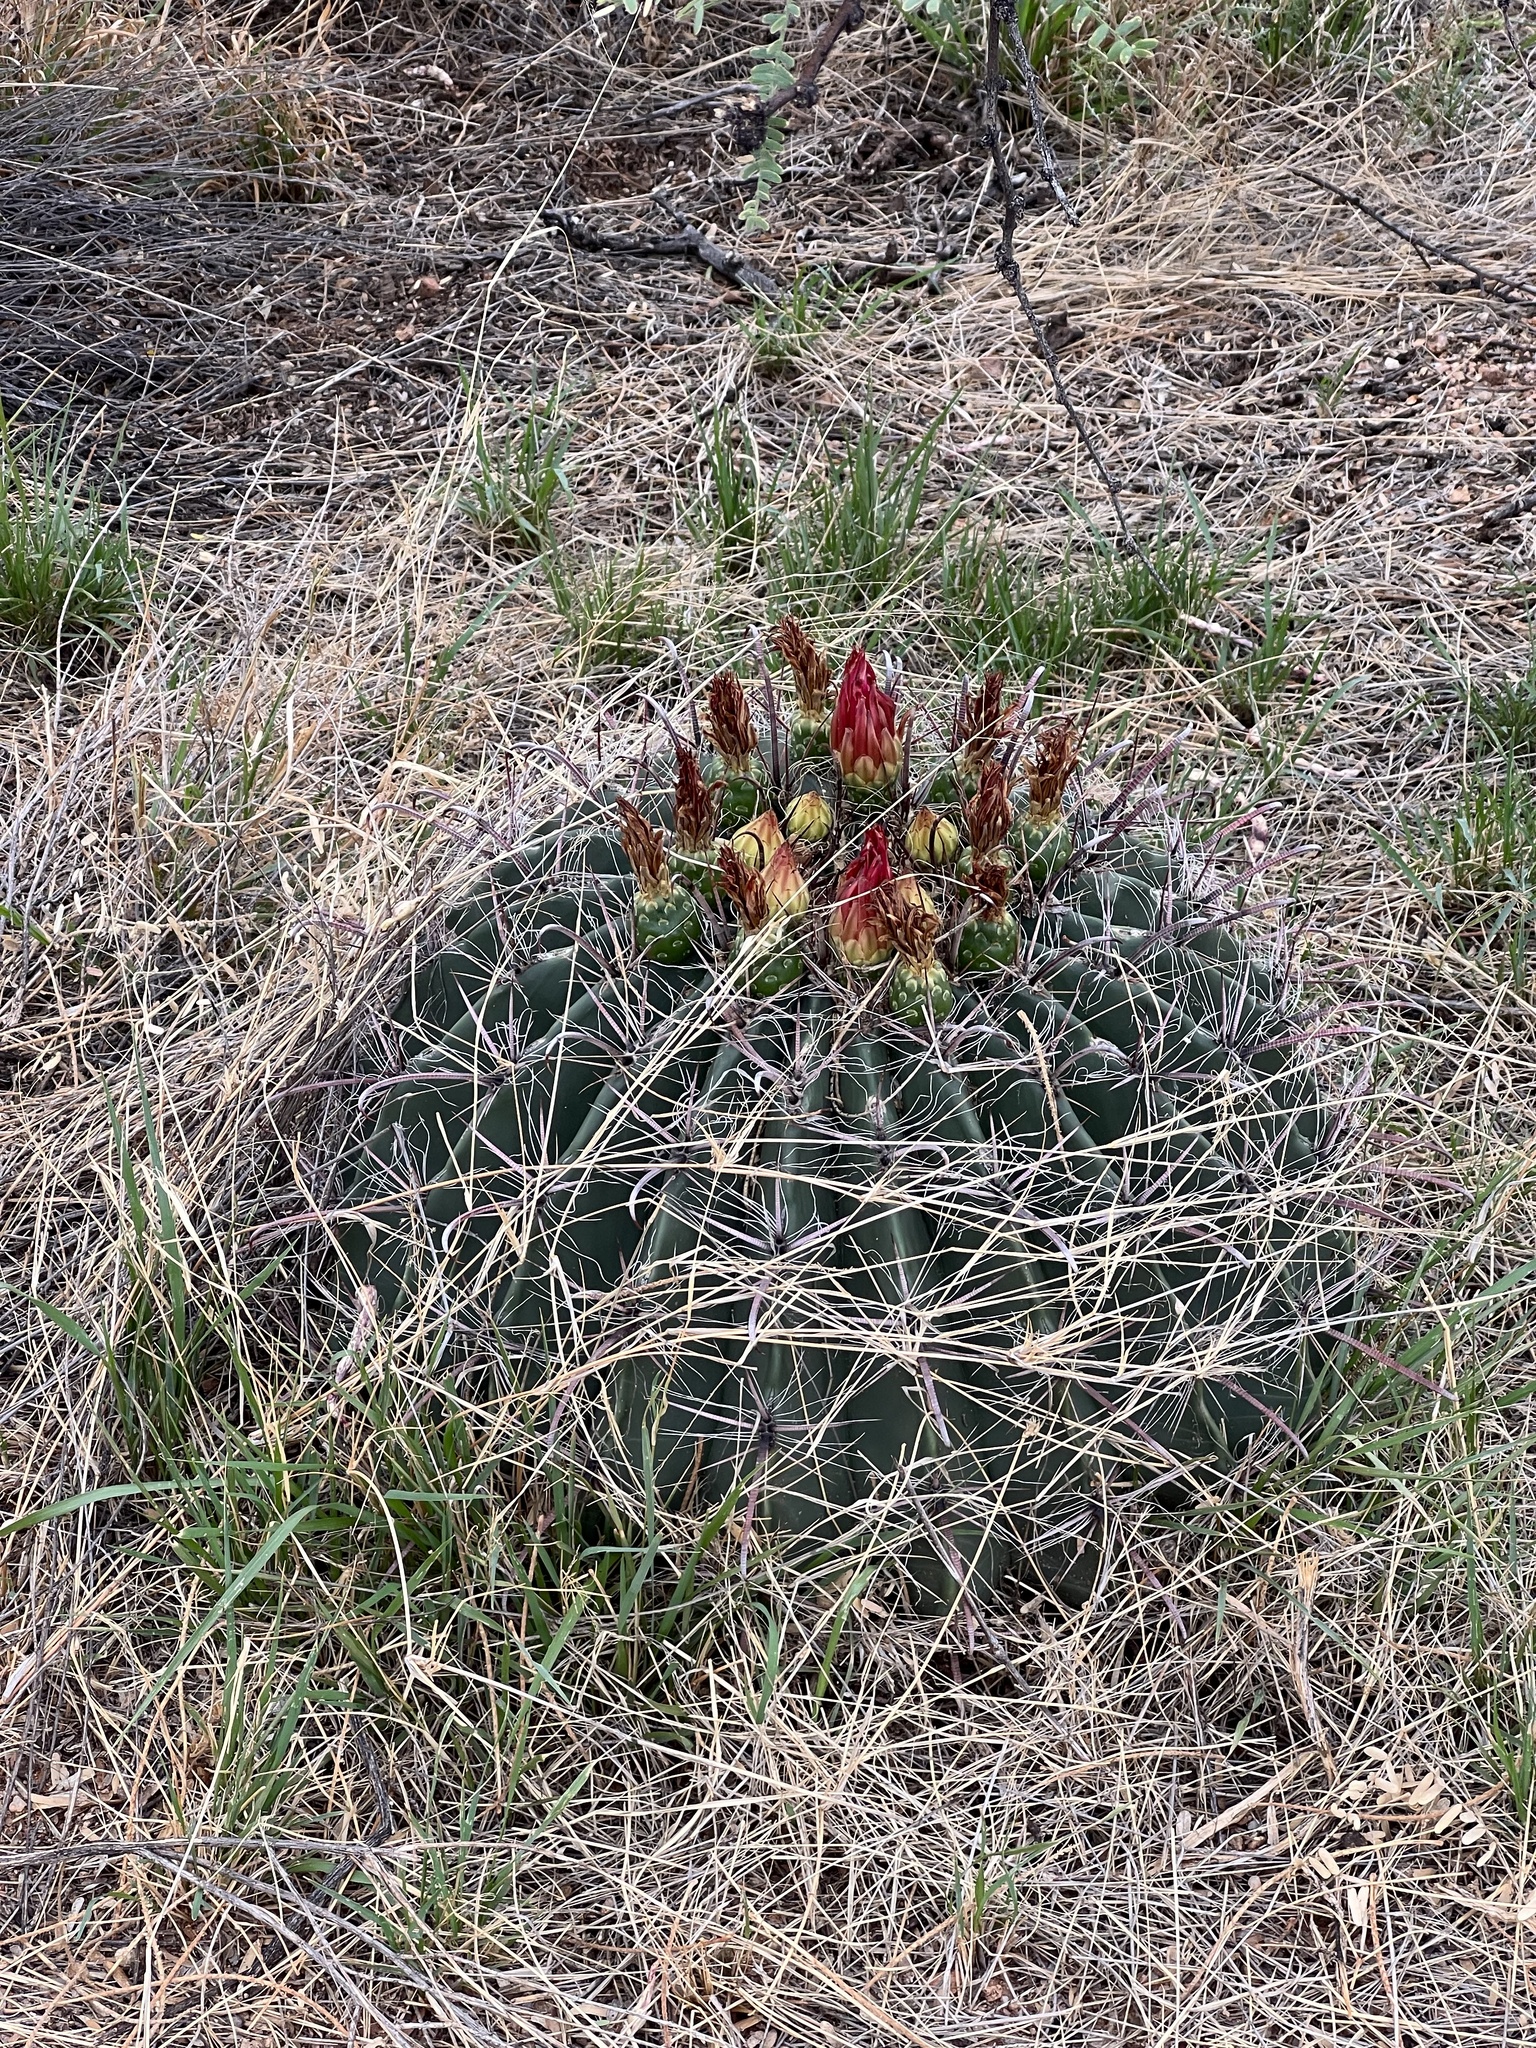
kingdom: Plantae
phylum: Tracheophyta
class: Magnoliopsida
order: Caryophyllales
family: Cactaceae
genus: Ferocactus
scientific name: Ferocactus wislizeni
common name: Candy barrel cactus
